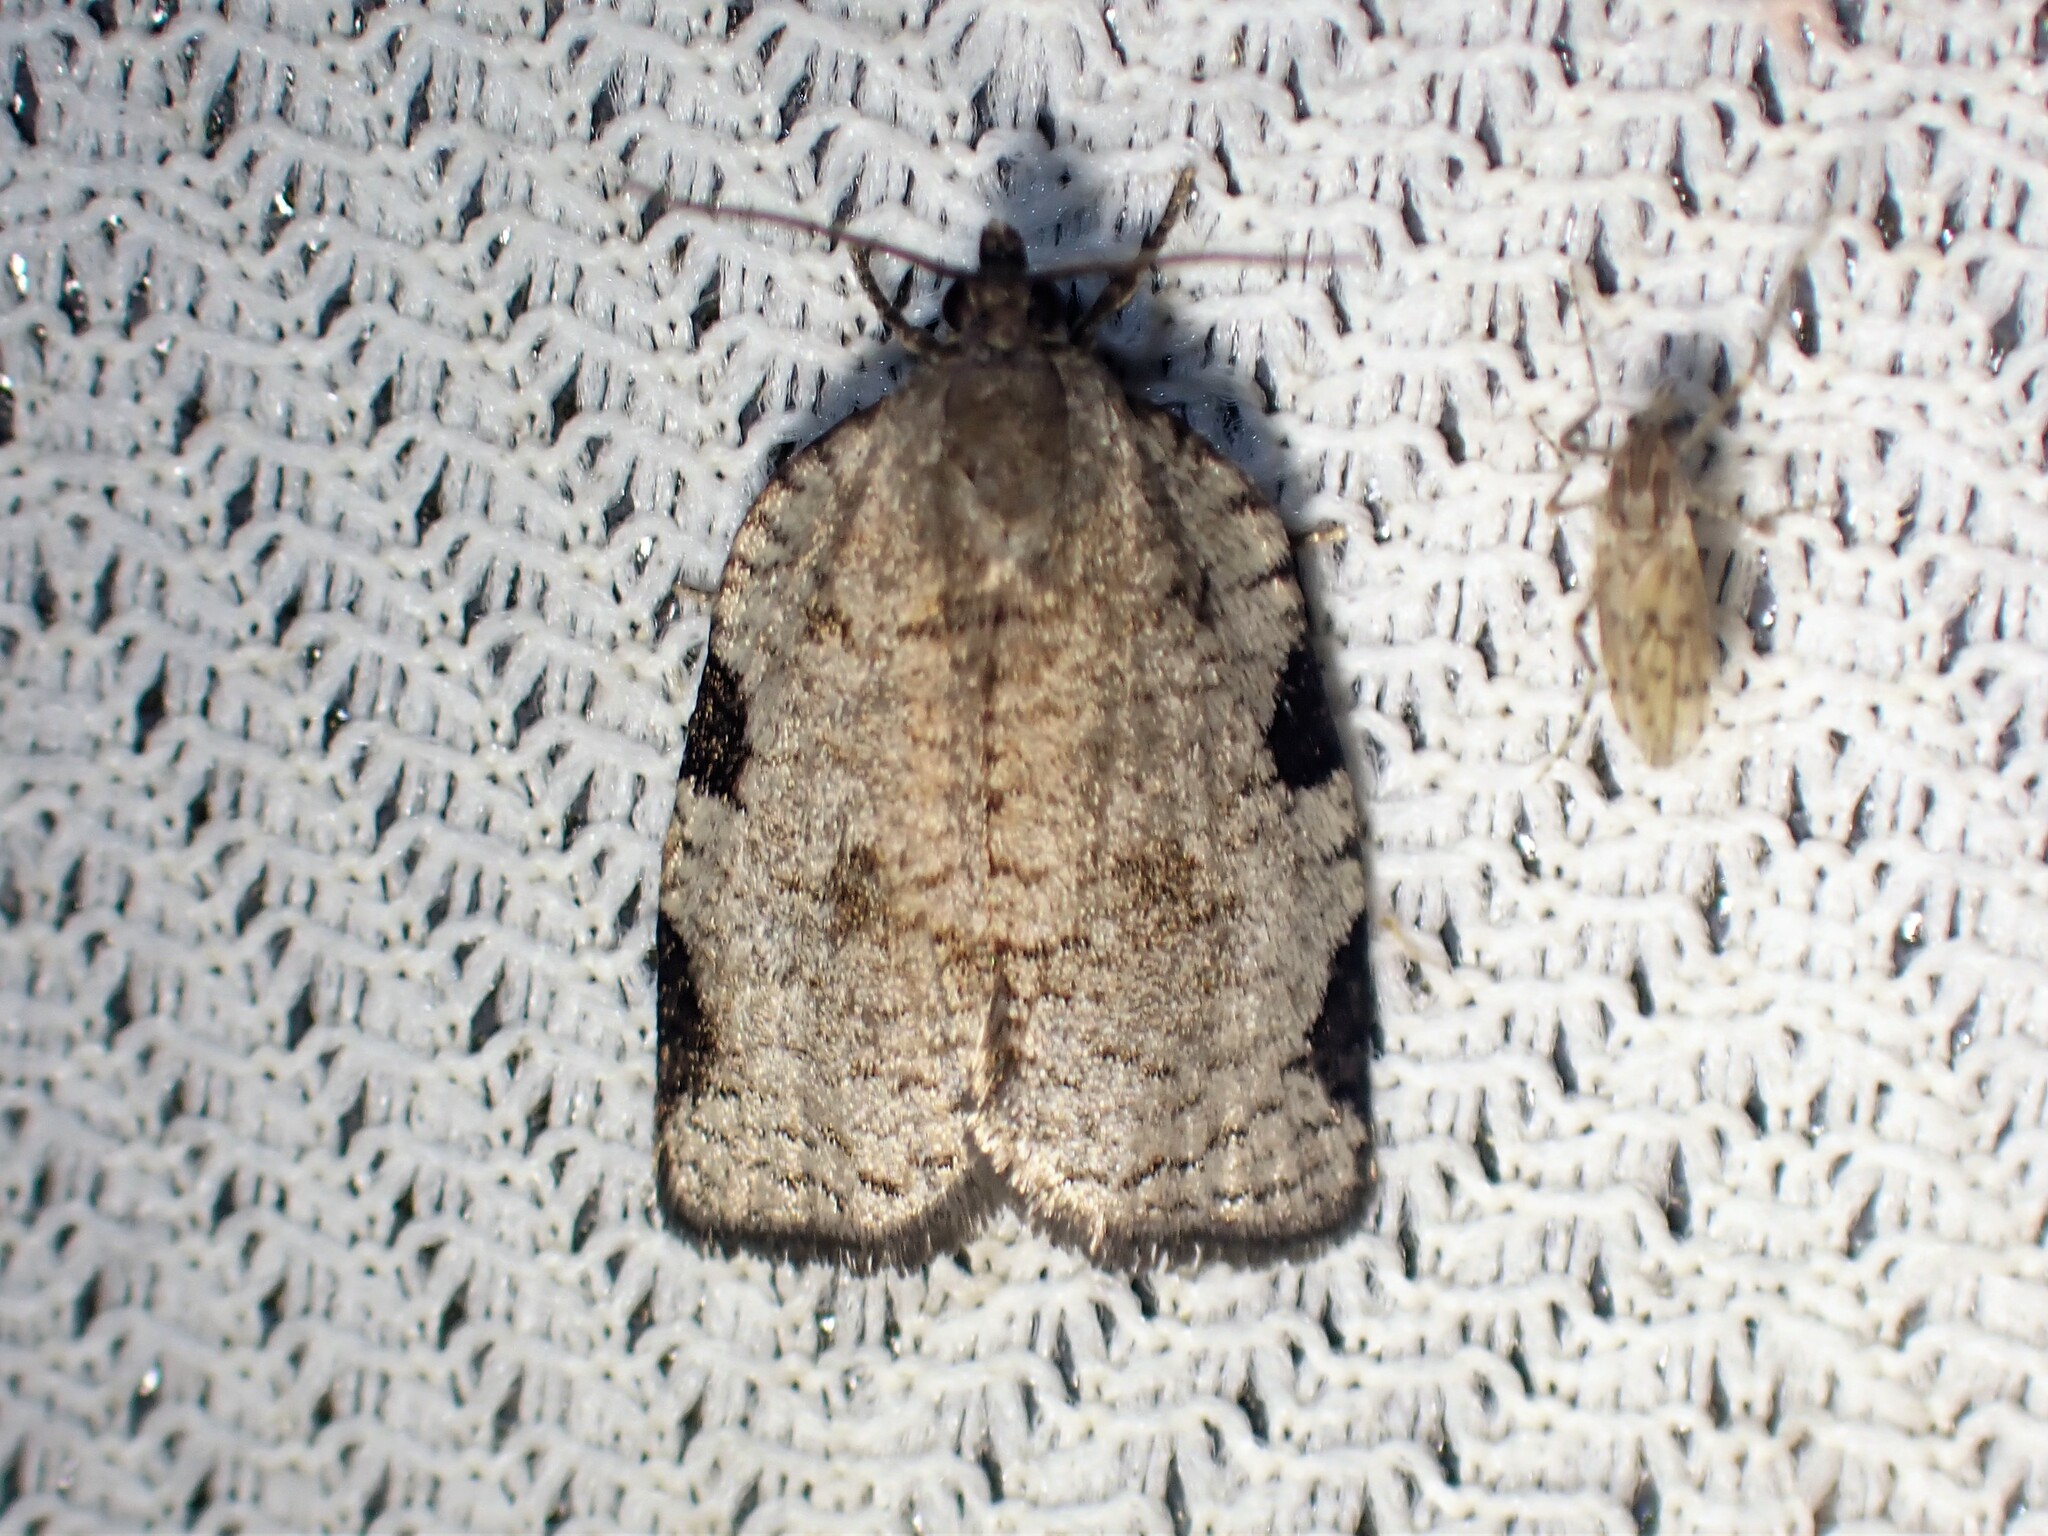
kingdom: Animalia
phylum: Arthropoda
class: Insecta
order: Lepidoptera
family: Tortricidae
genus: Lozotaenia
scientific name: Lozotaenia costinotana
